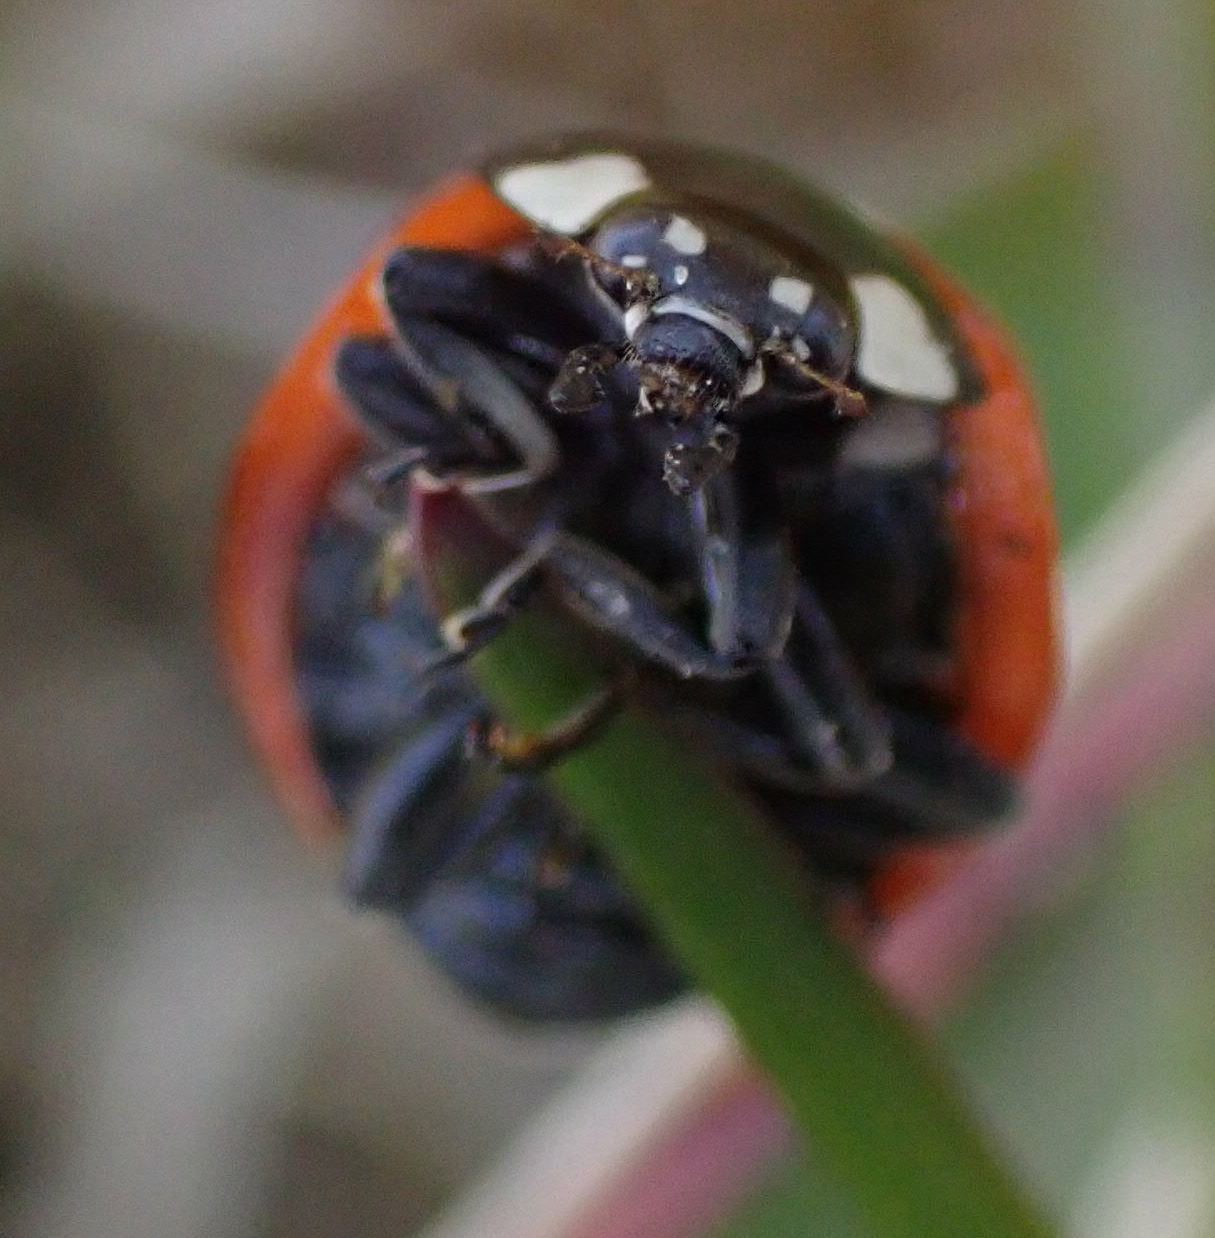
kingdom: Animalia
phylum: Arthropoda
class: Insecta
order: Coleoptera
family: Coccinellidae
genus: Coccinella
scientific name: Coccinella septempunctata
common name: Sevenspotted lady beetle
